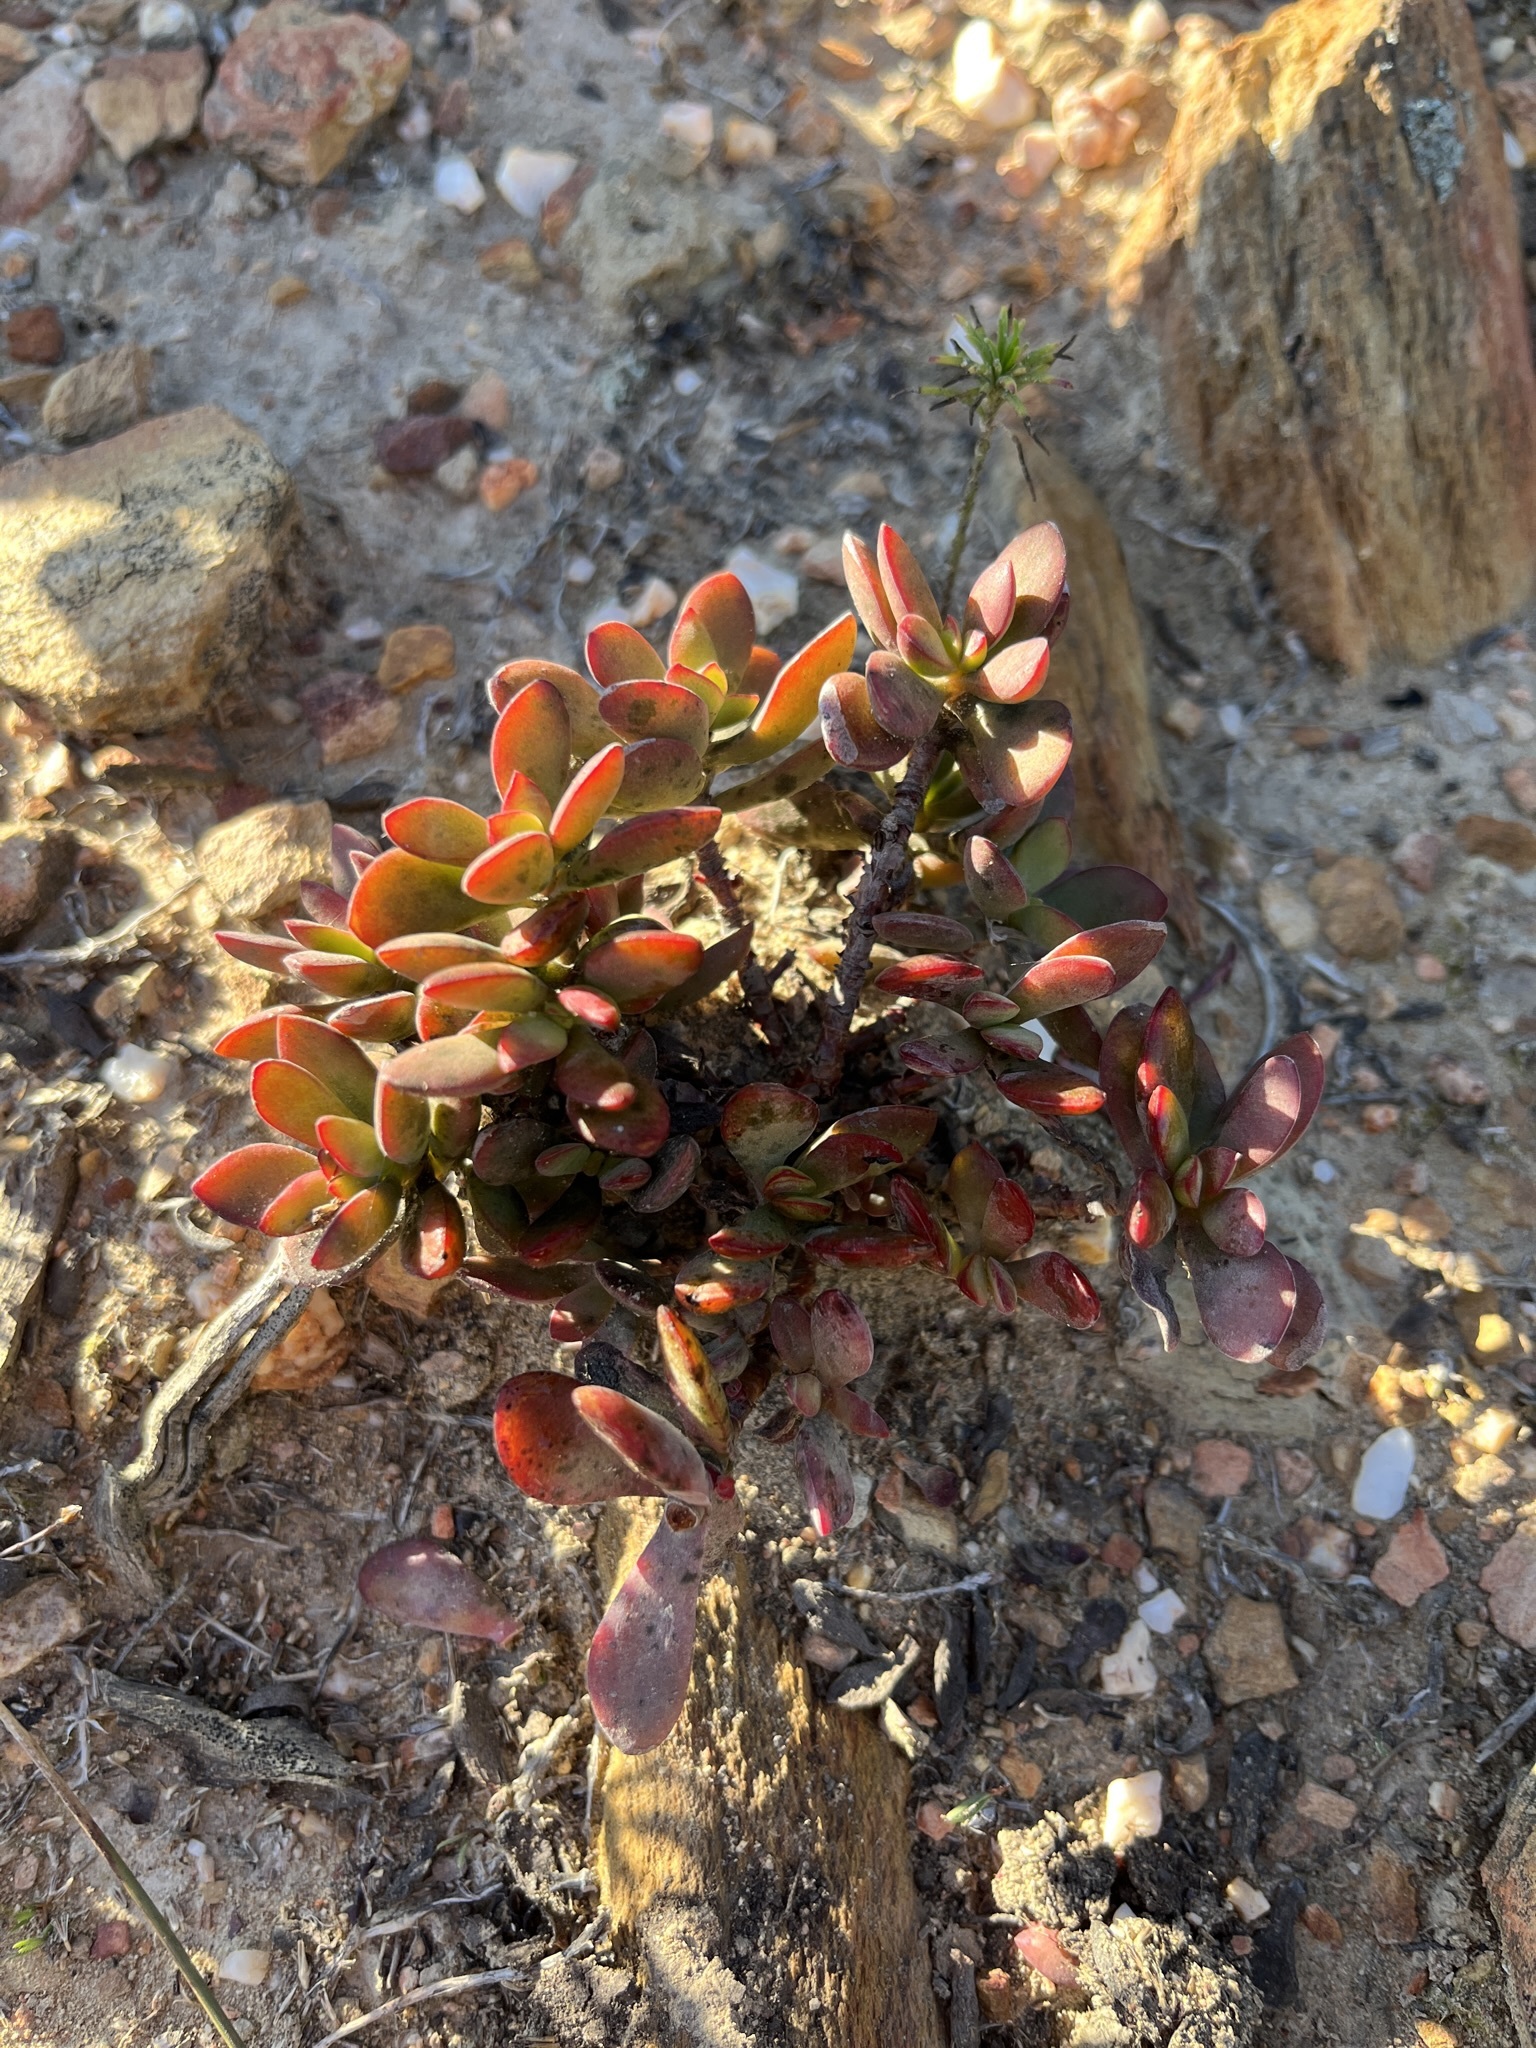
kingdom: Plantae
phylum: Tracheophyta
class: Magnoliopsida
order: Saxifragales
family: Crassulaceae
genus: Crassula
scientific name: Crassula atropurpurea
